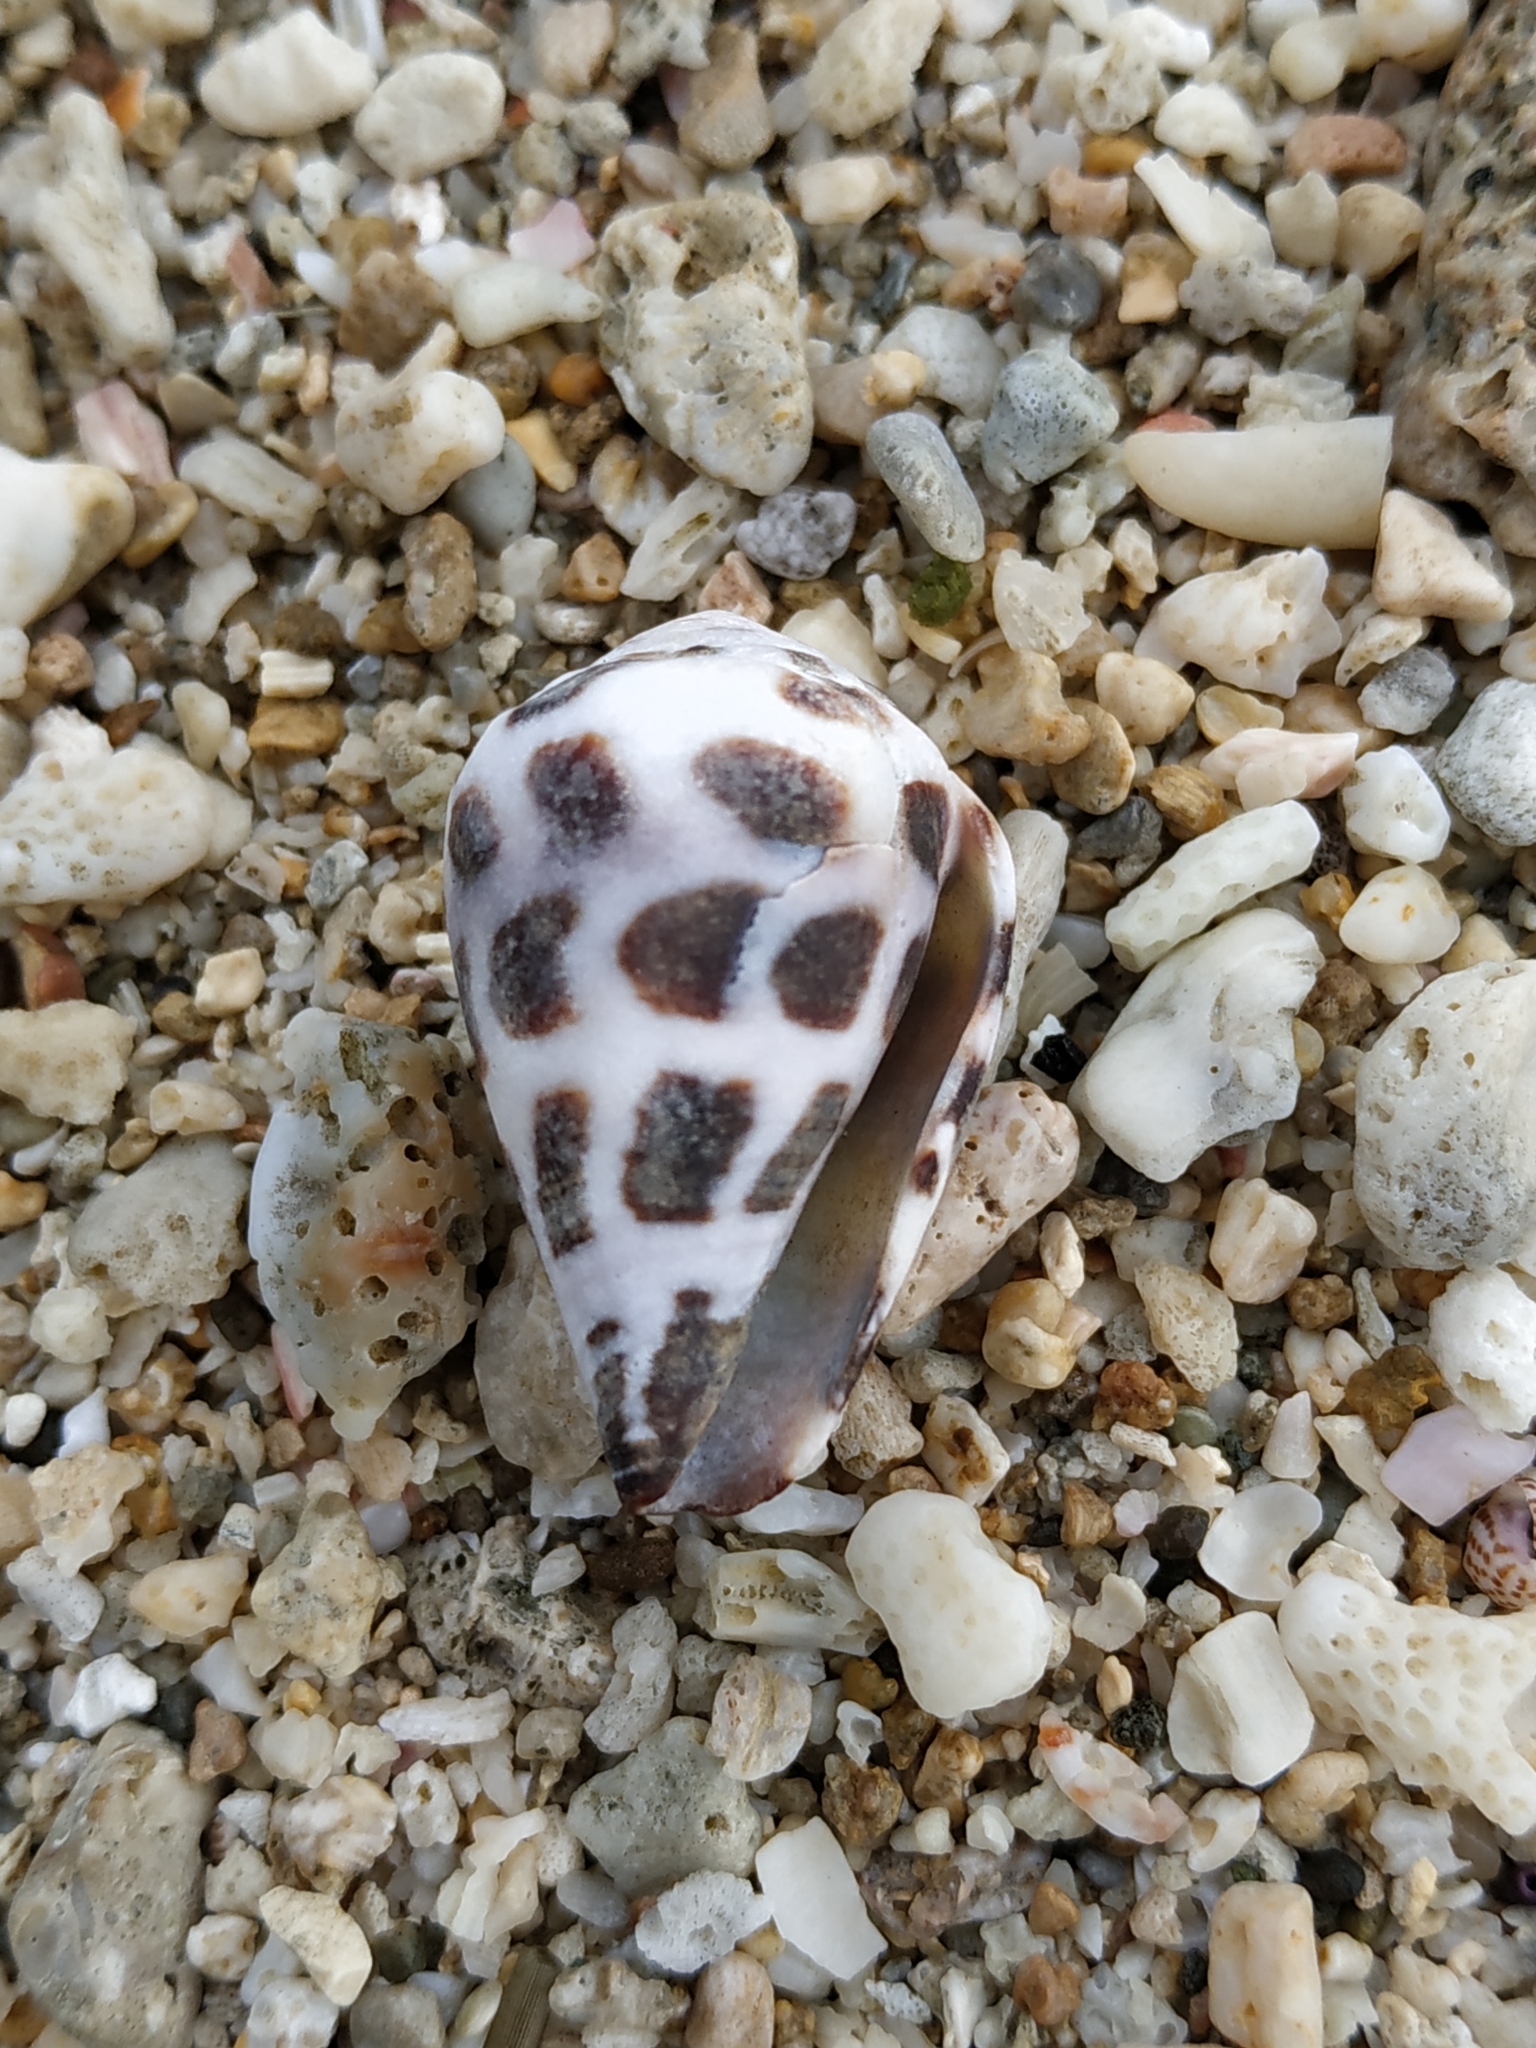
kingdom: Animalia
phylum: Mollusca
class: Gastropoda
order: Neogastropoda
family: Conidae
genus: Conus
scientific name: Conus ebraeus
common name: Hebrew cone
